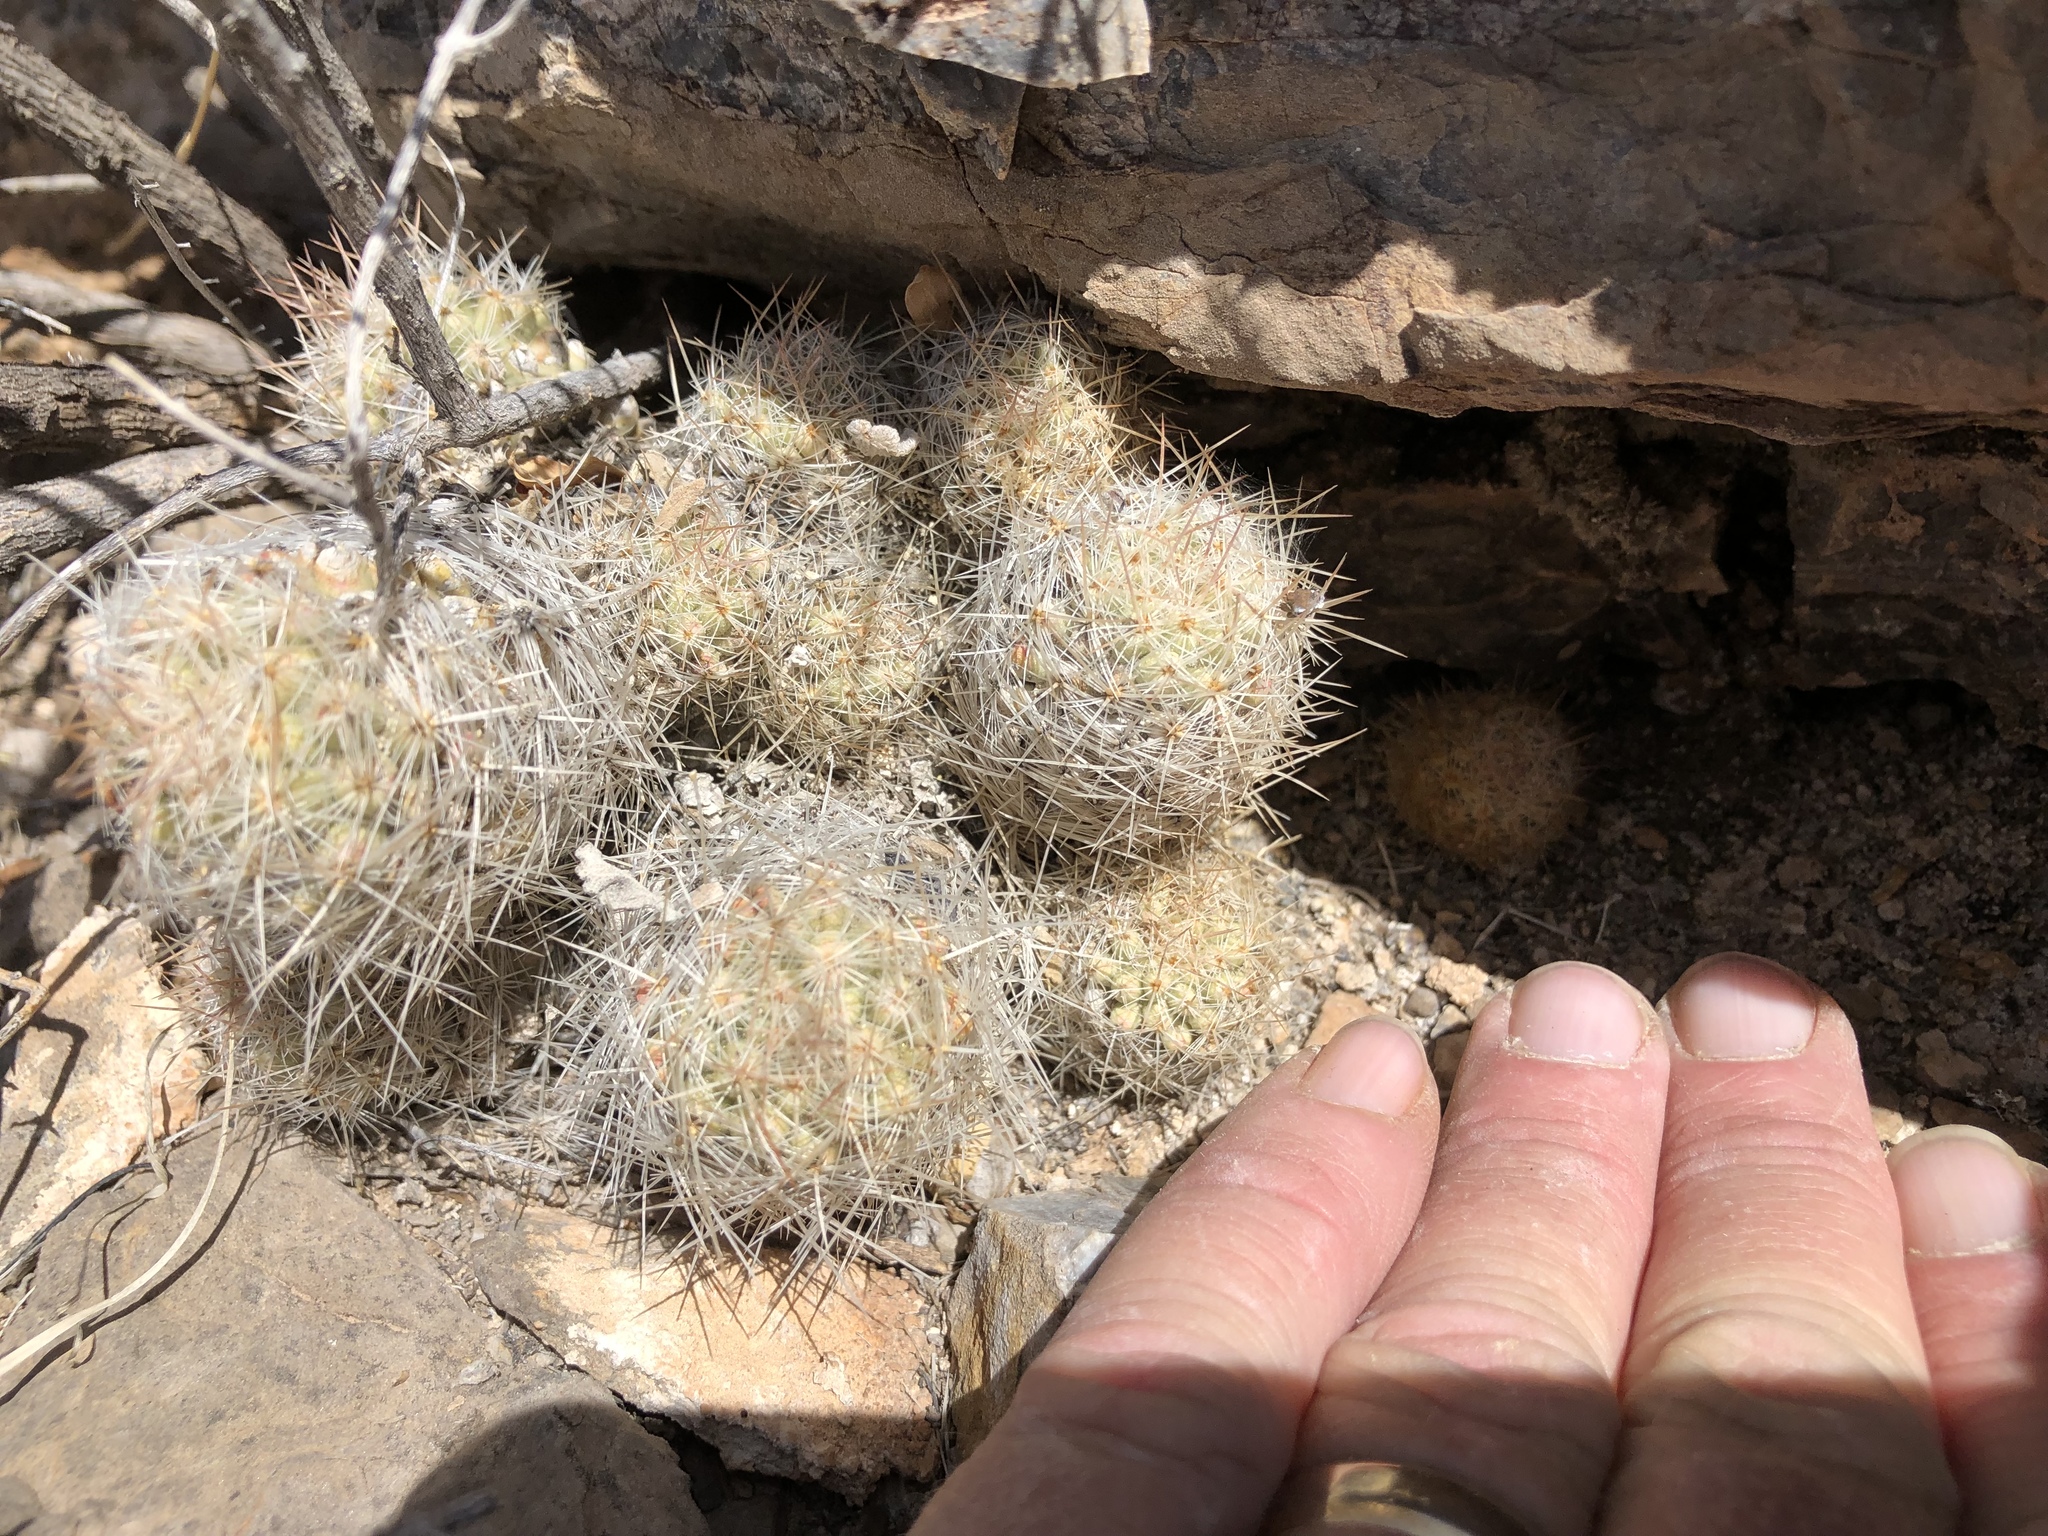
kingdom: Plantae
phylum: Tracheophyta
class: Magnoliopsida
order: Caryophyllales
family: Cactaceae
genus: Pelecyphora
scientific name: Pelecyphora tuberculosa
